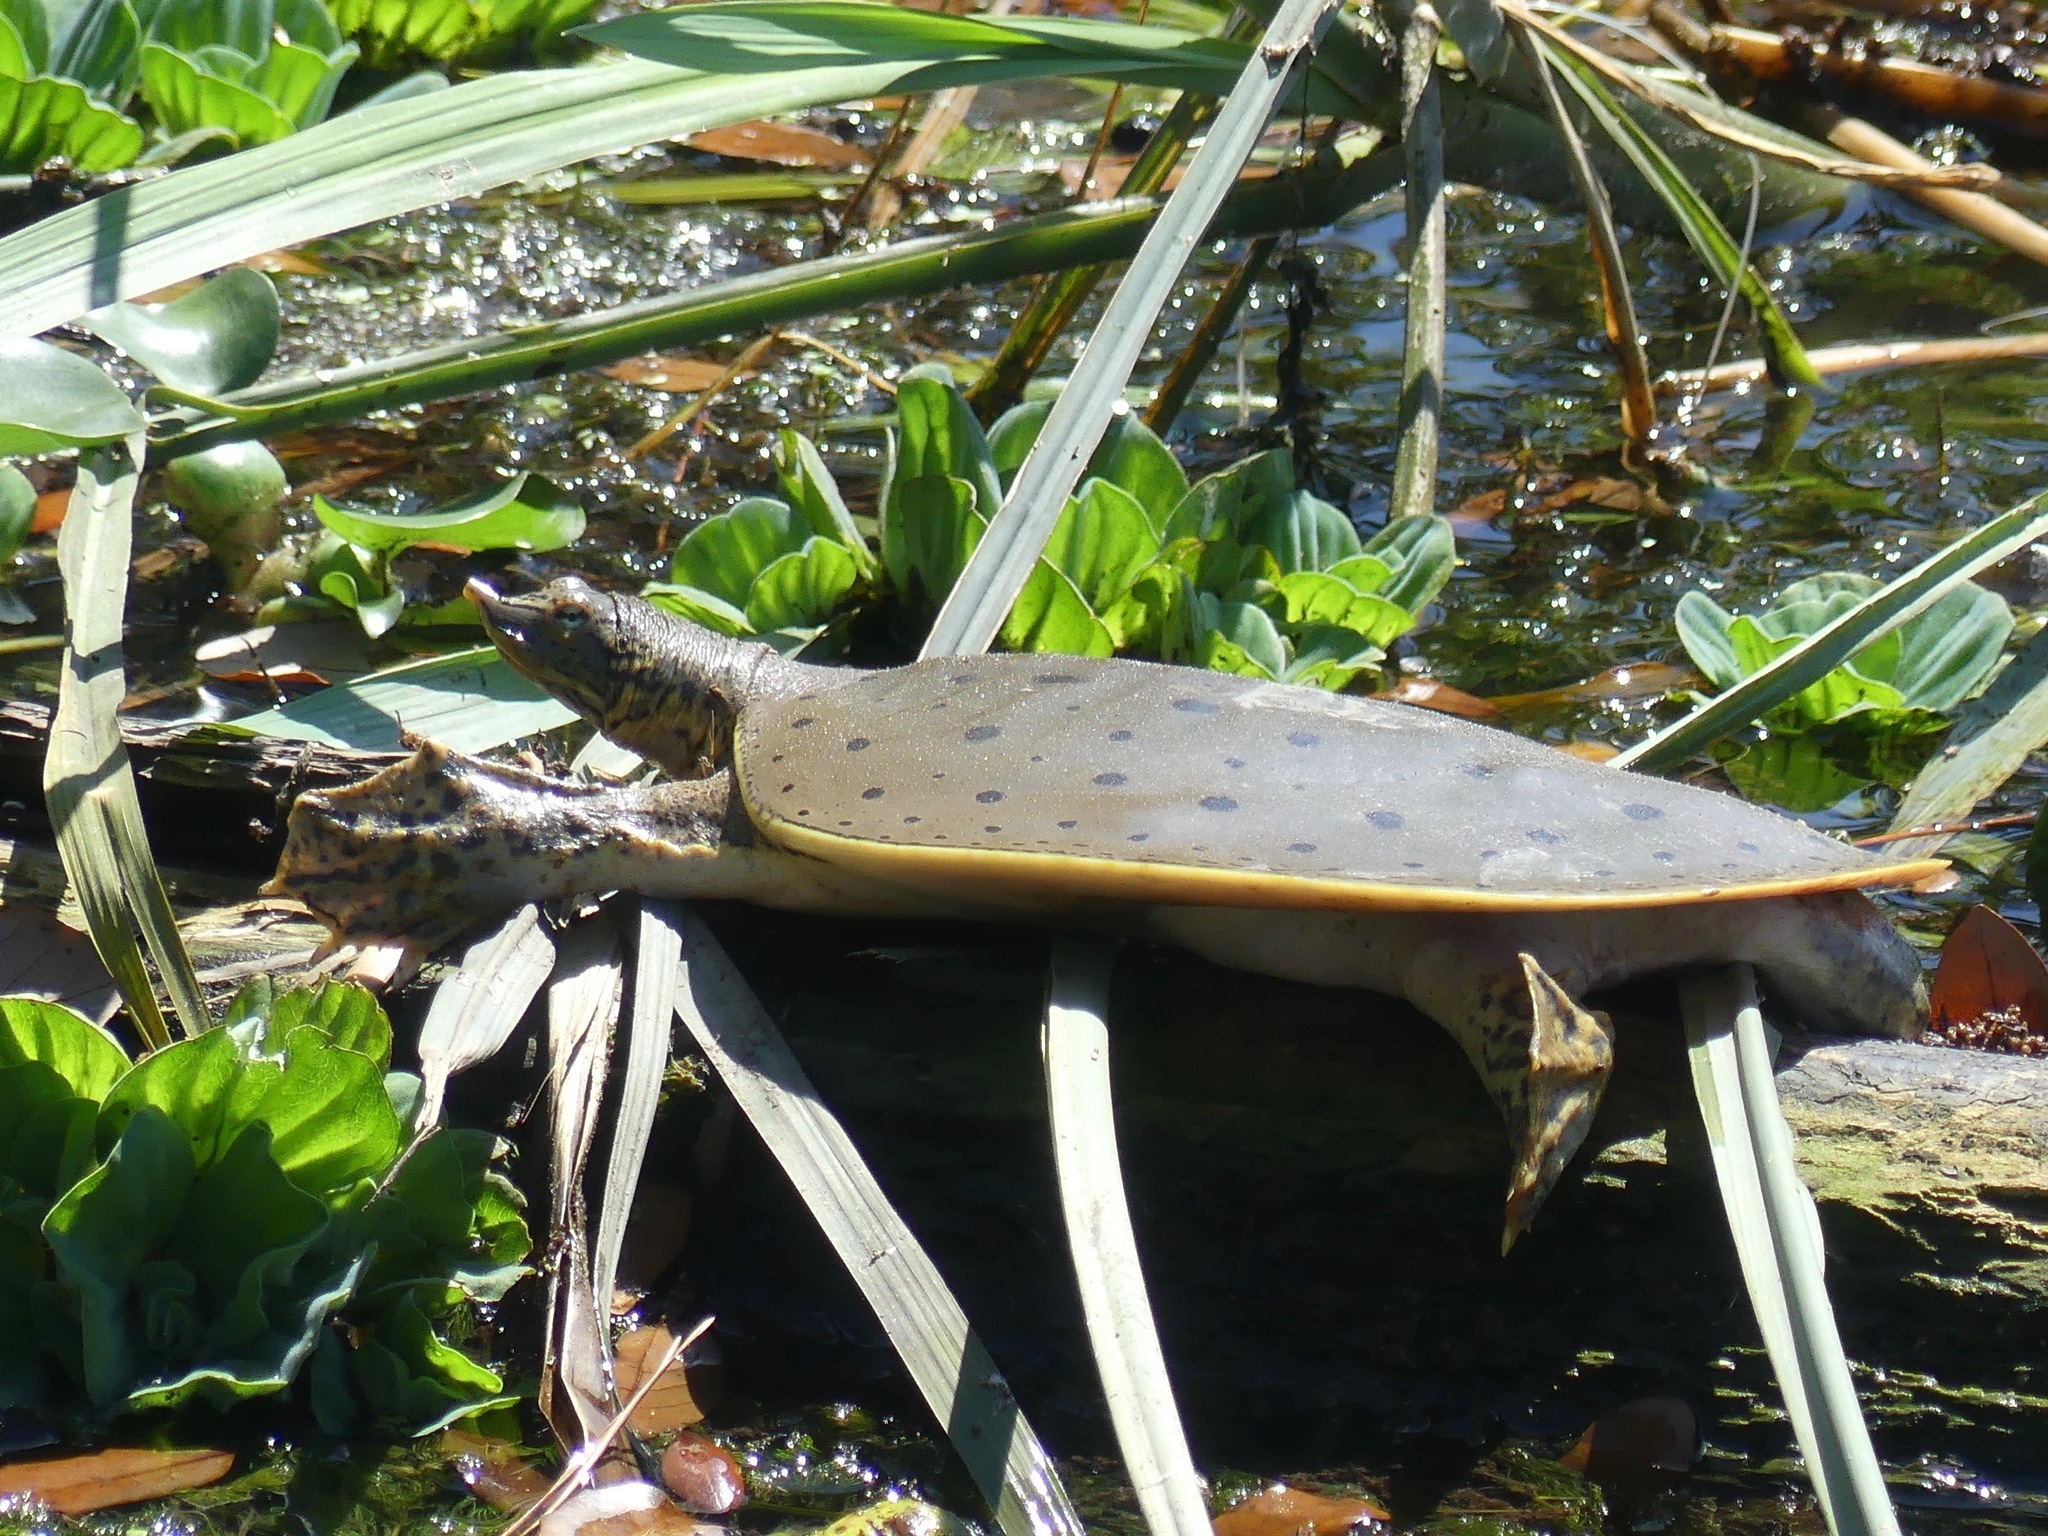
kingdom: Animalia
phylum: Chordata
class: Testudines
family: Trionychidae
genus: Apalone
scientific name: Apalone spinifera
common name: Spiny softshell turtle
